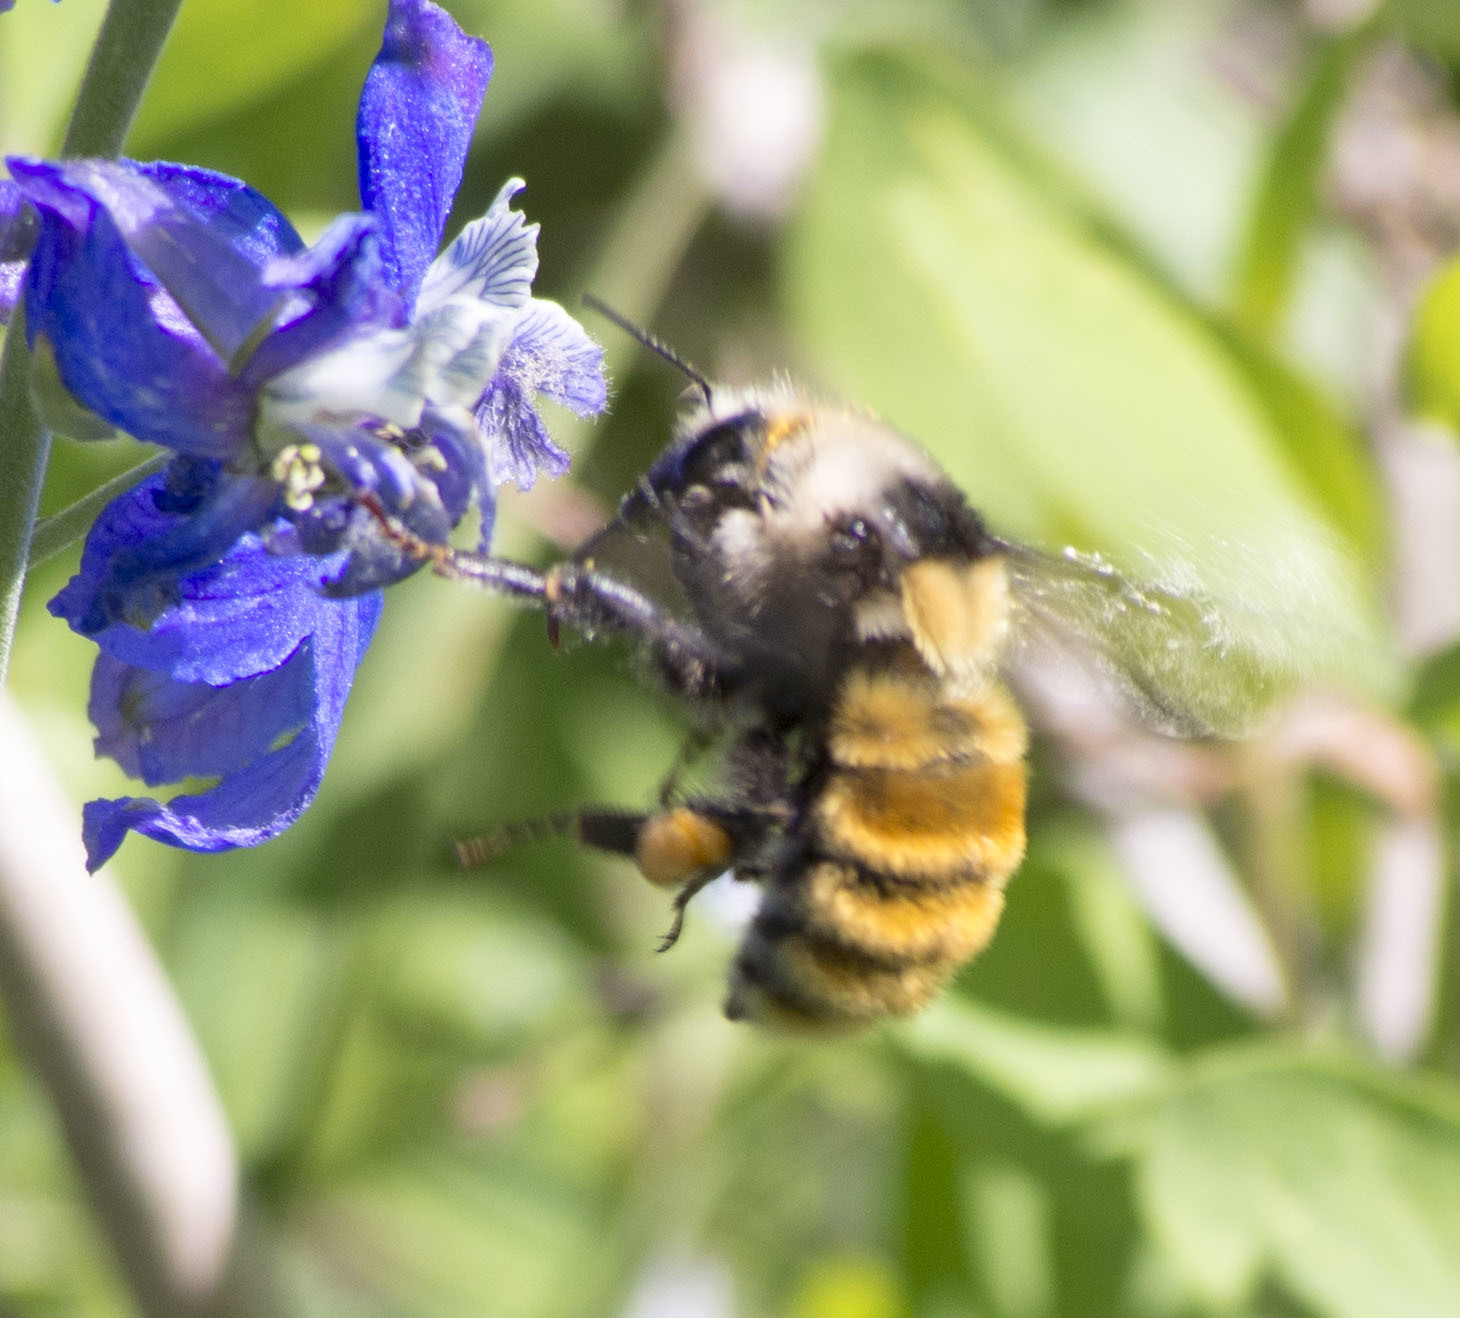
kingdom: Animalia
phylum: Arthropoda
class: Insecta
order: Hymenoptera
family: Apidae
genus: Bombus
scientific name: Bombus appositus
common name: White-shouldered bumble bee
